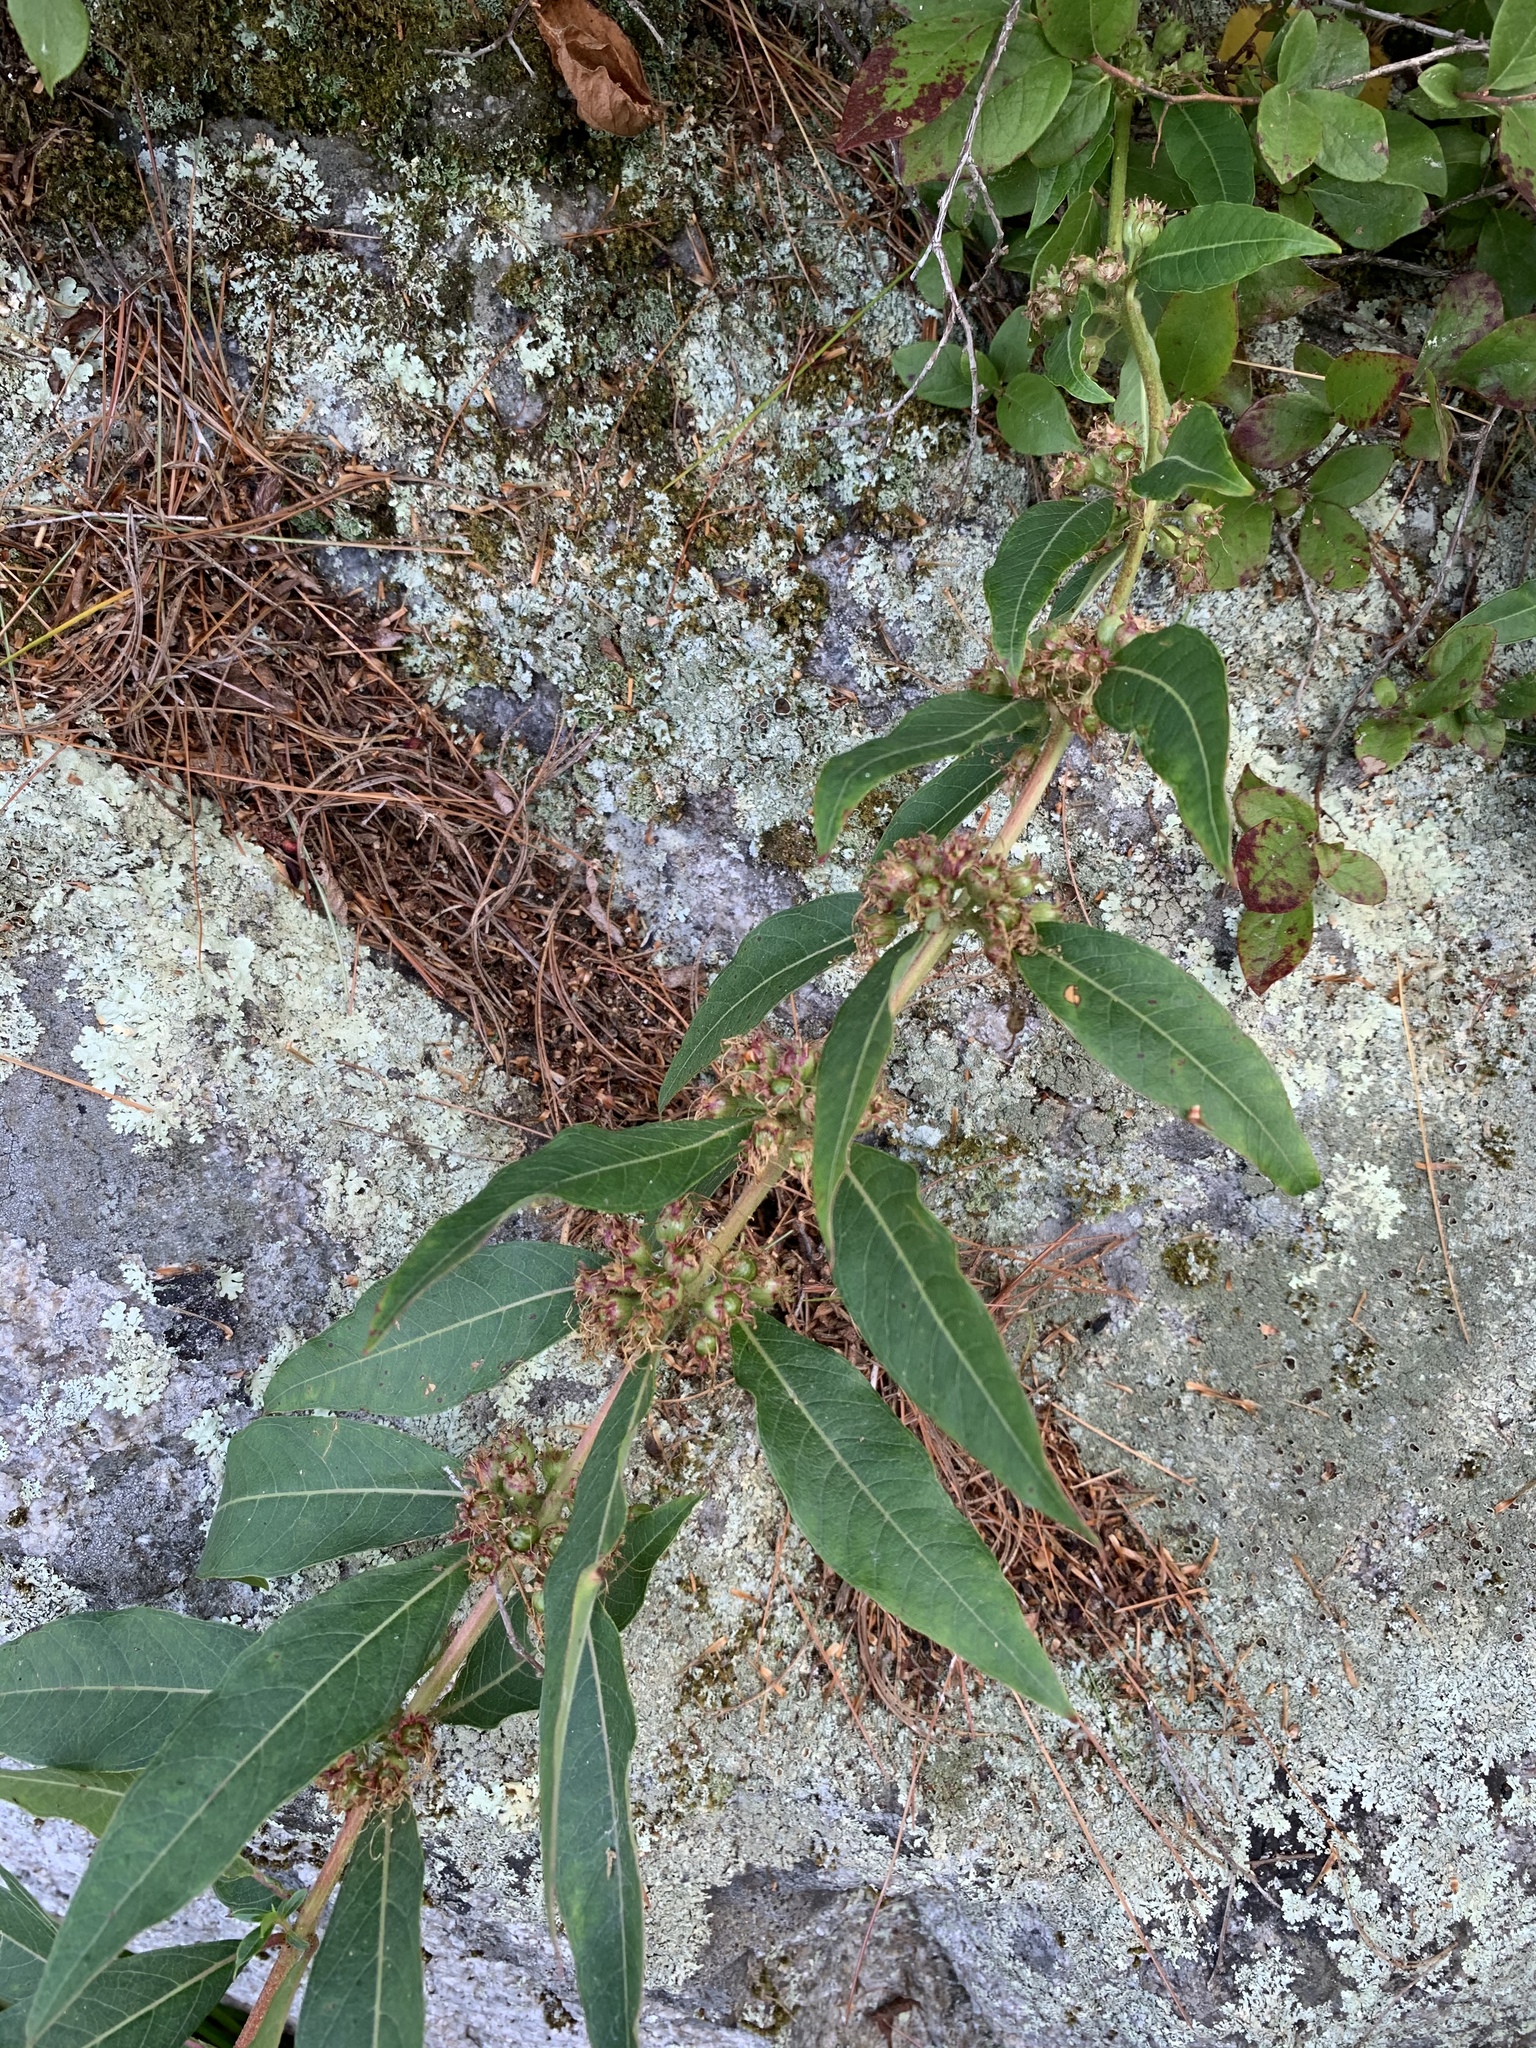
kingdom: Plantae
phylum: Tracheophyta
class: Magnoliopsida
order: Myrtales
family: Lythraceae
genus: Decodon
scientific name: Decodon verticillatus
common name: Hairy swamp loosestrife
